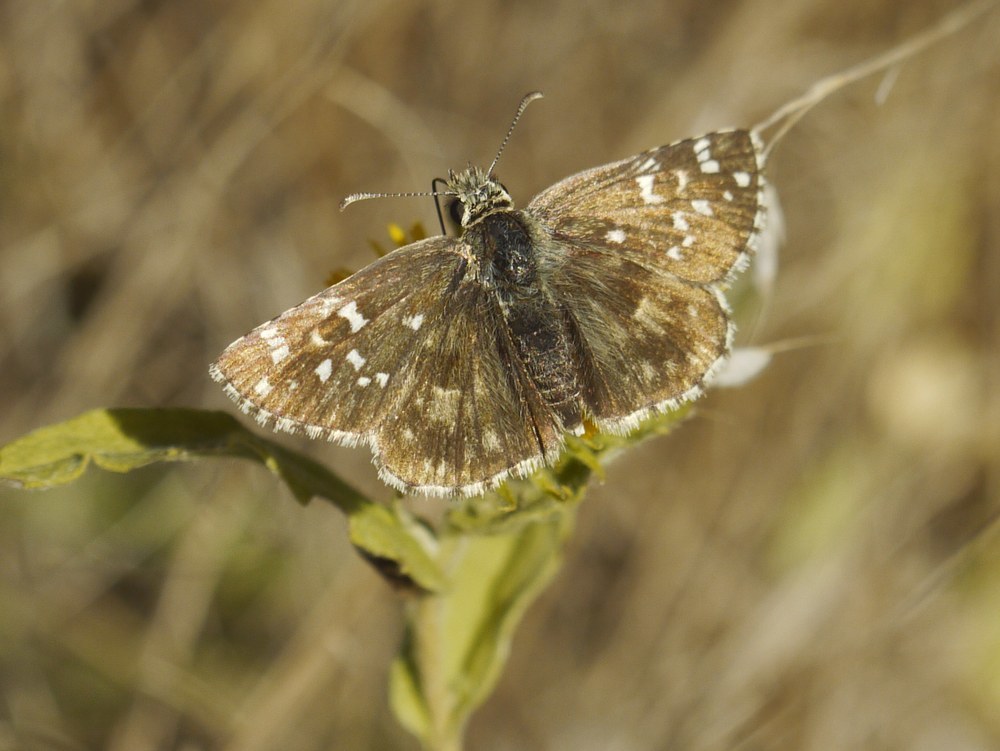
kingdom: Animalia
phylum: Arthropoda
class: Insecta
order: Lepidoptera
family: Hesperiidae
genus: Pyrgus
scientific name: Pyrgus armoricanus
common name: Oberthür's grizzled skipper
